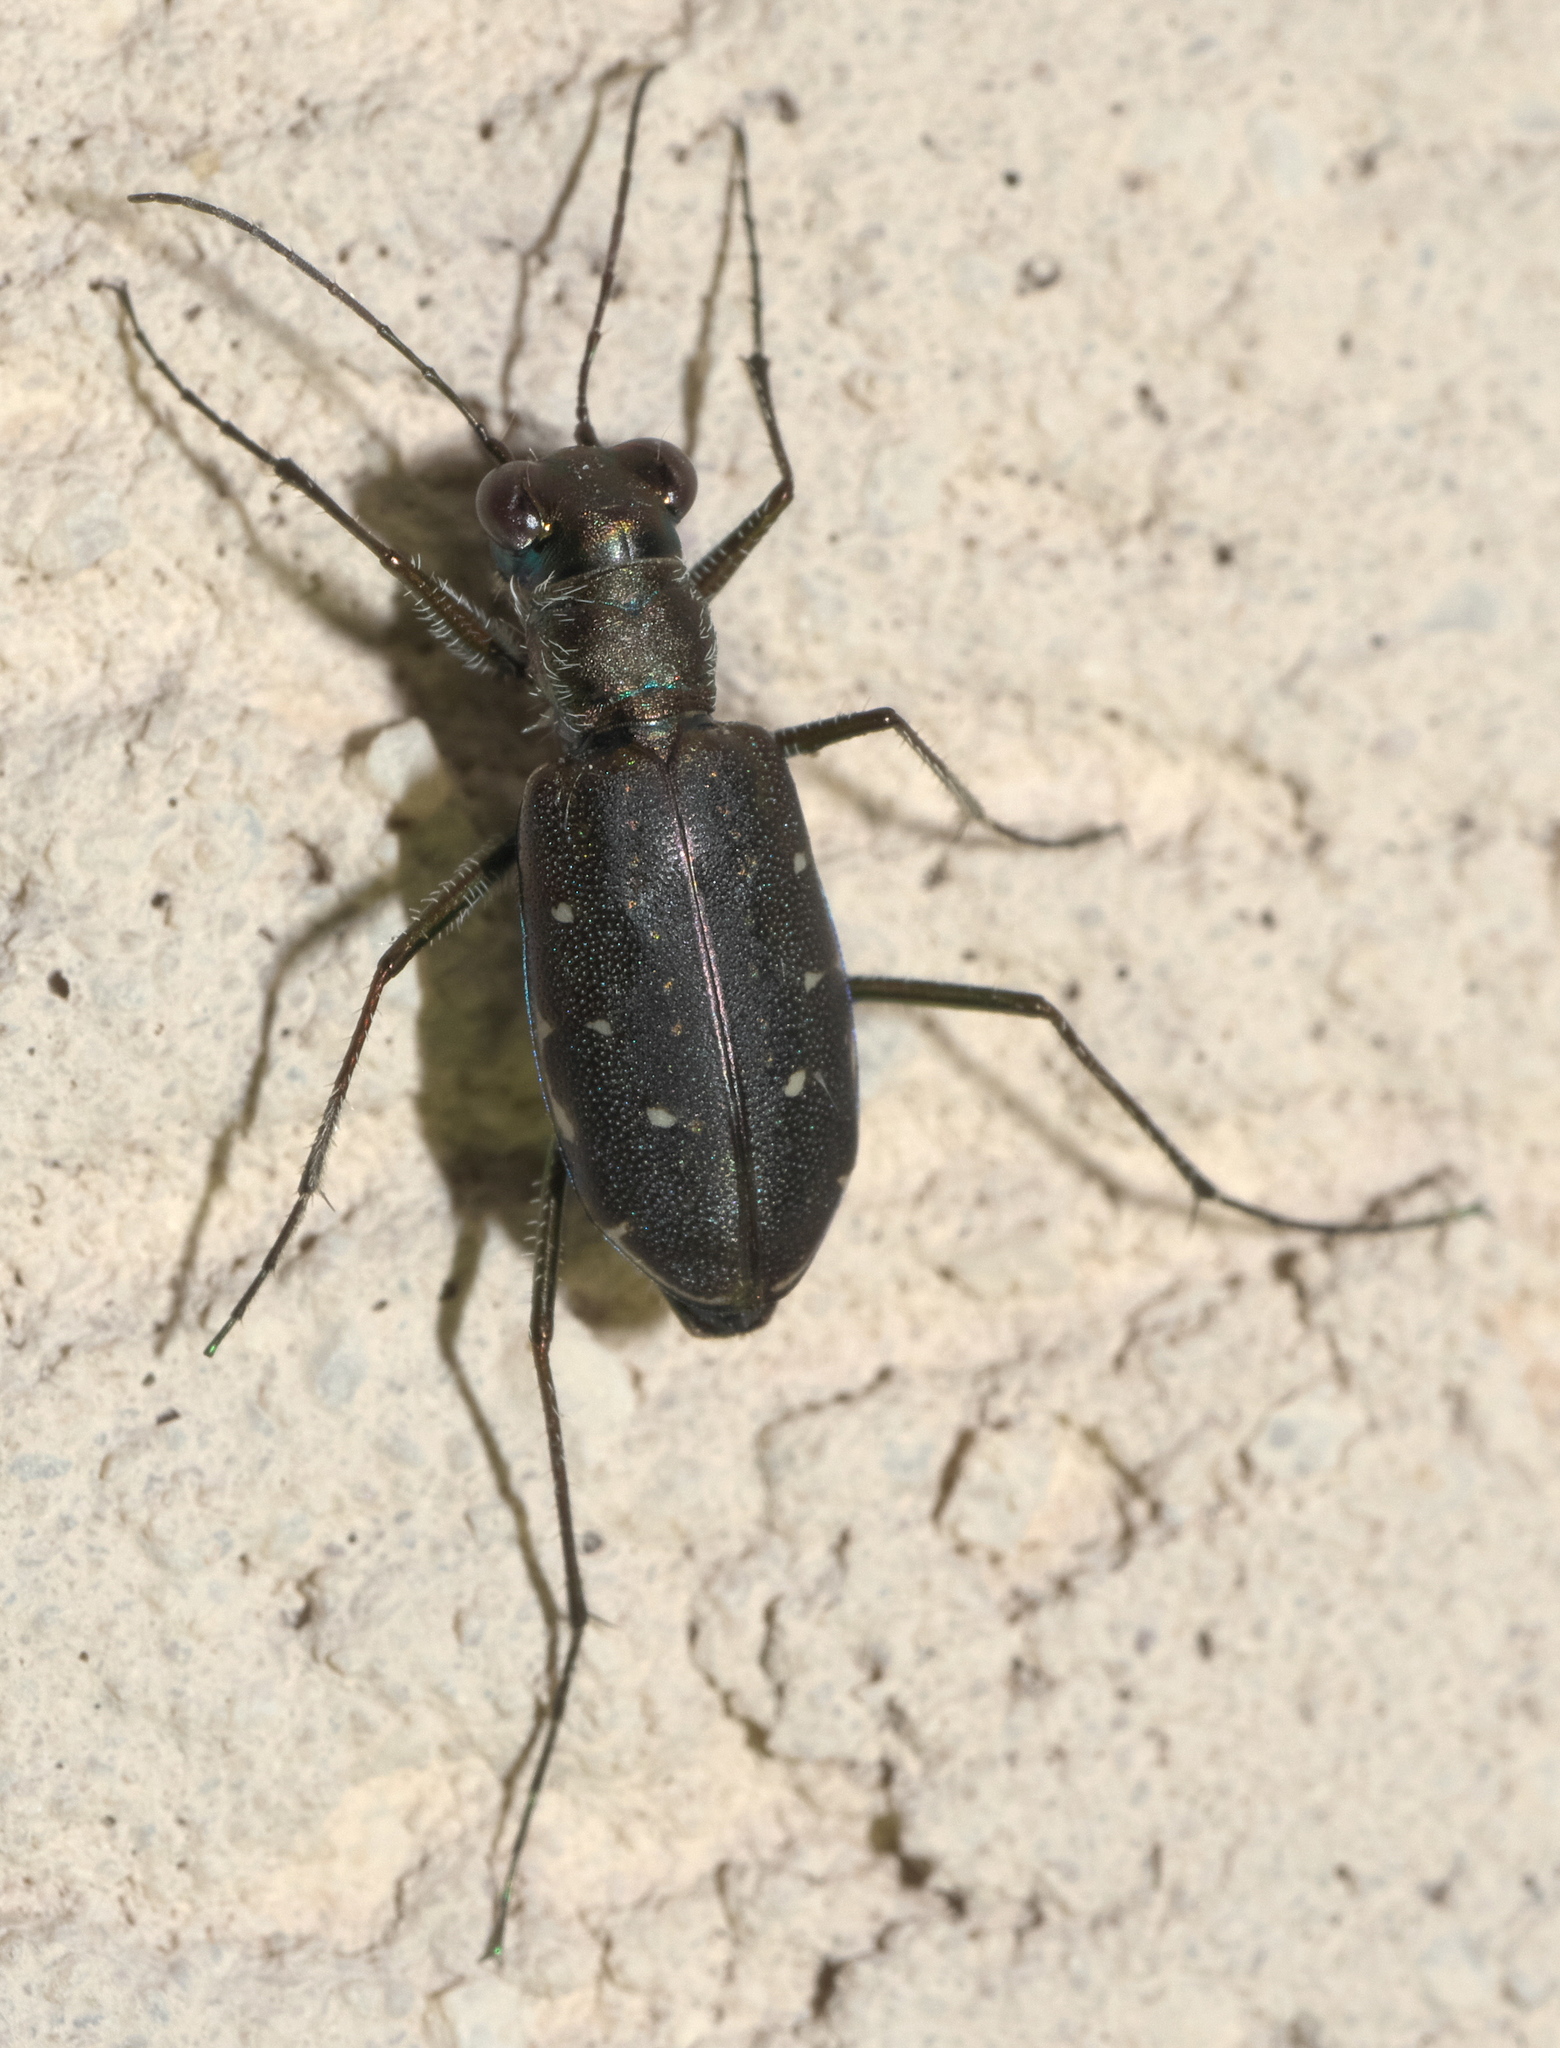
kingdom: Animalia
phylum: Arthropoda
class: Insecta
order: Coleoptera
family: Carabidae
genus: Cicindela
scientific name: Cicindela punctulata
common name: Punctured tiger beetle
